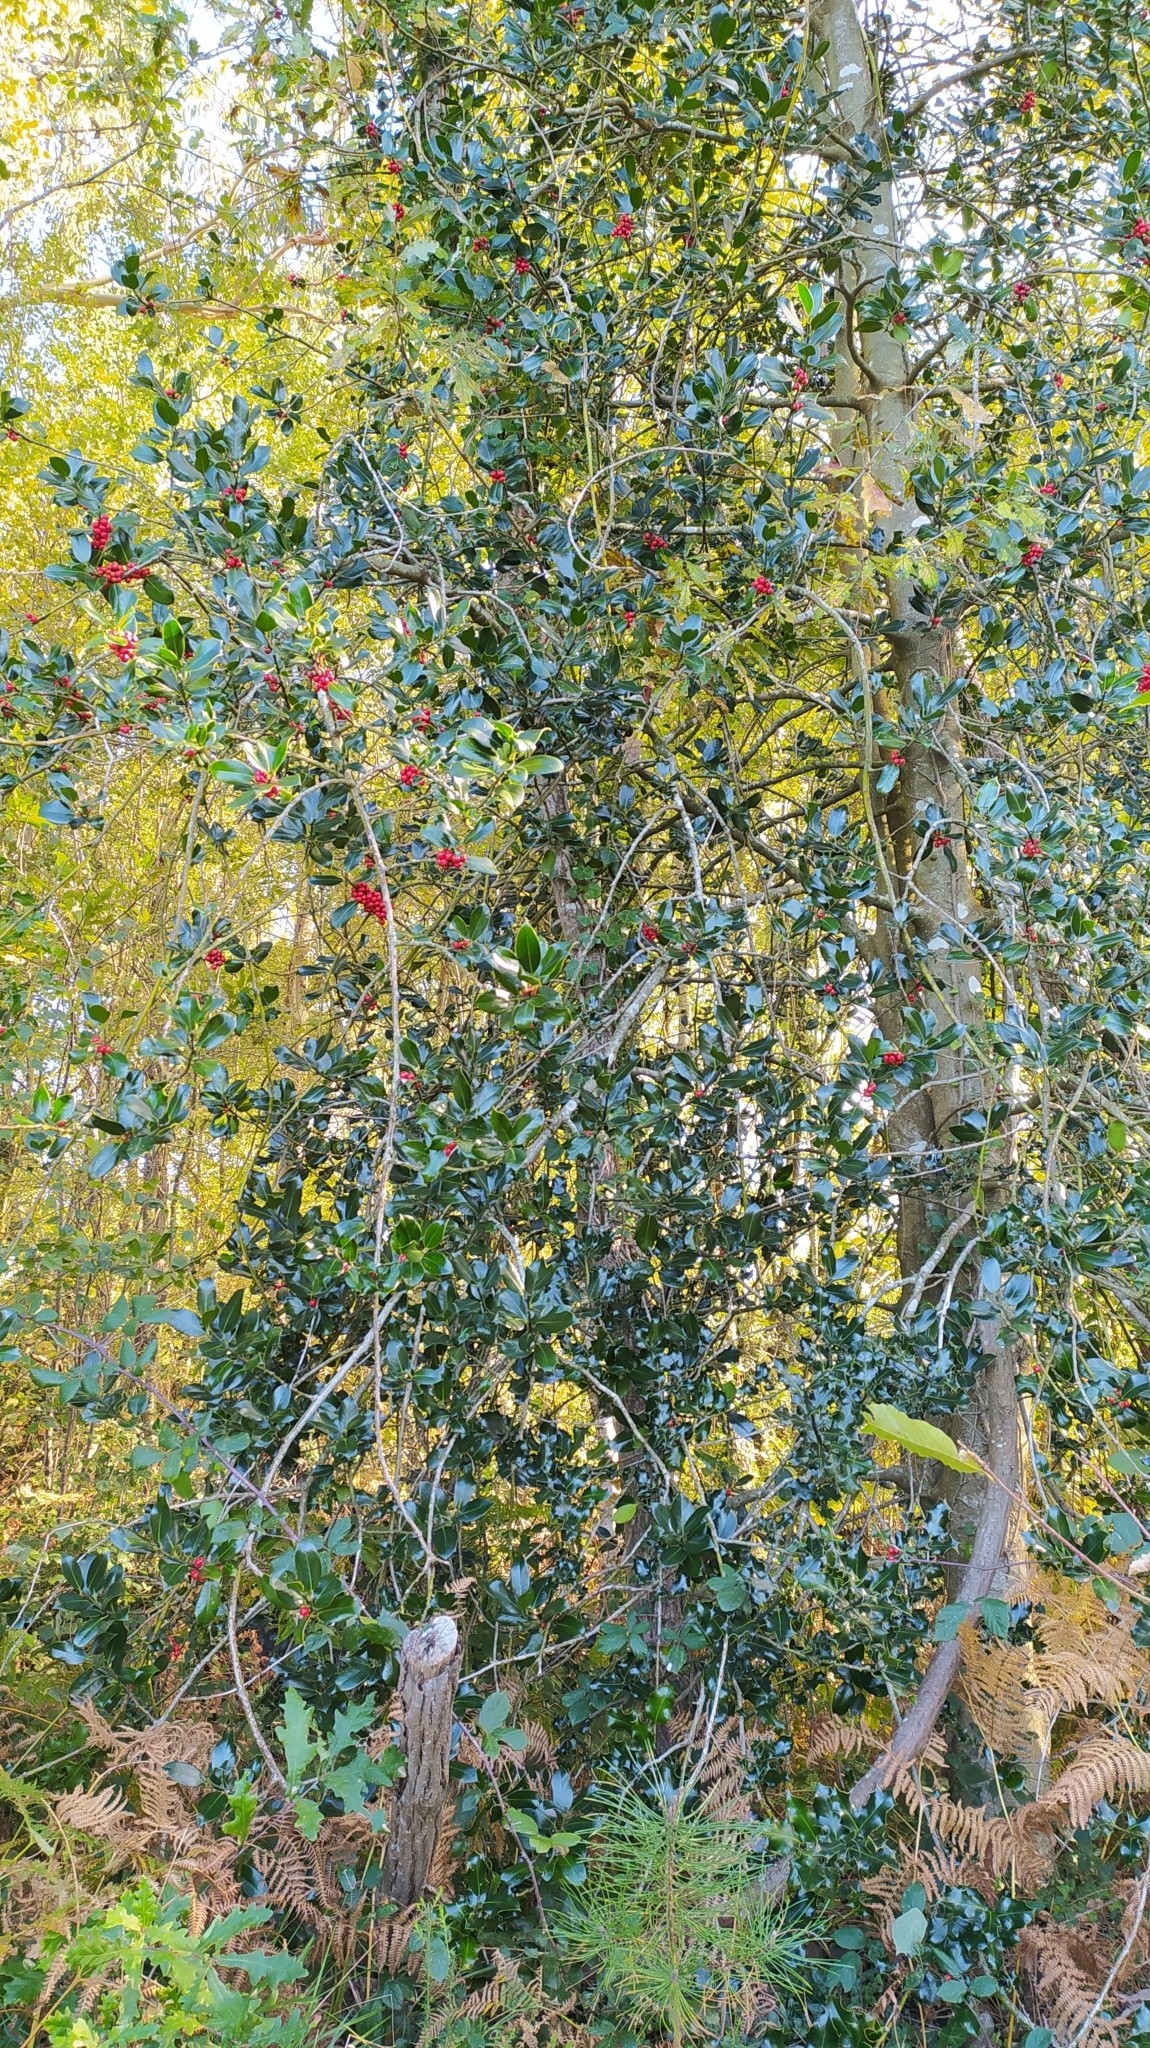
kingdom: Plantae
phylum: Tracheophyta
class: Magnoliopsida
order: Aquifoliales
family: Aquifoliaceae
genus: Ilex
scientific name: Ilex aquifolium
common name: English holly
